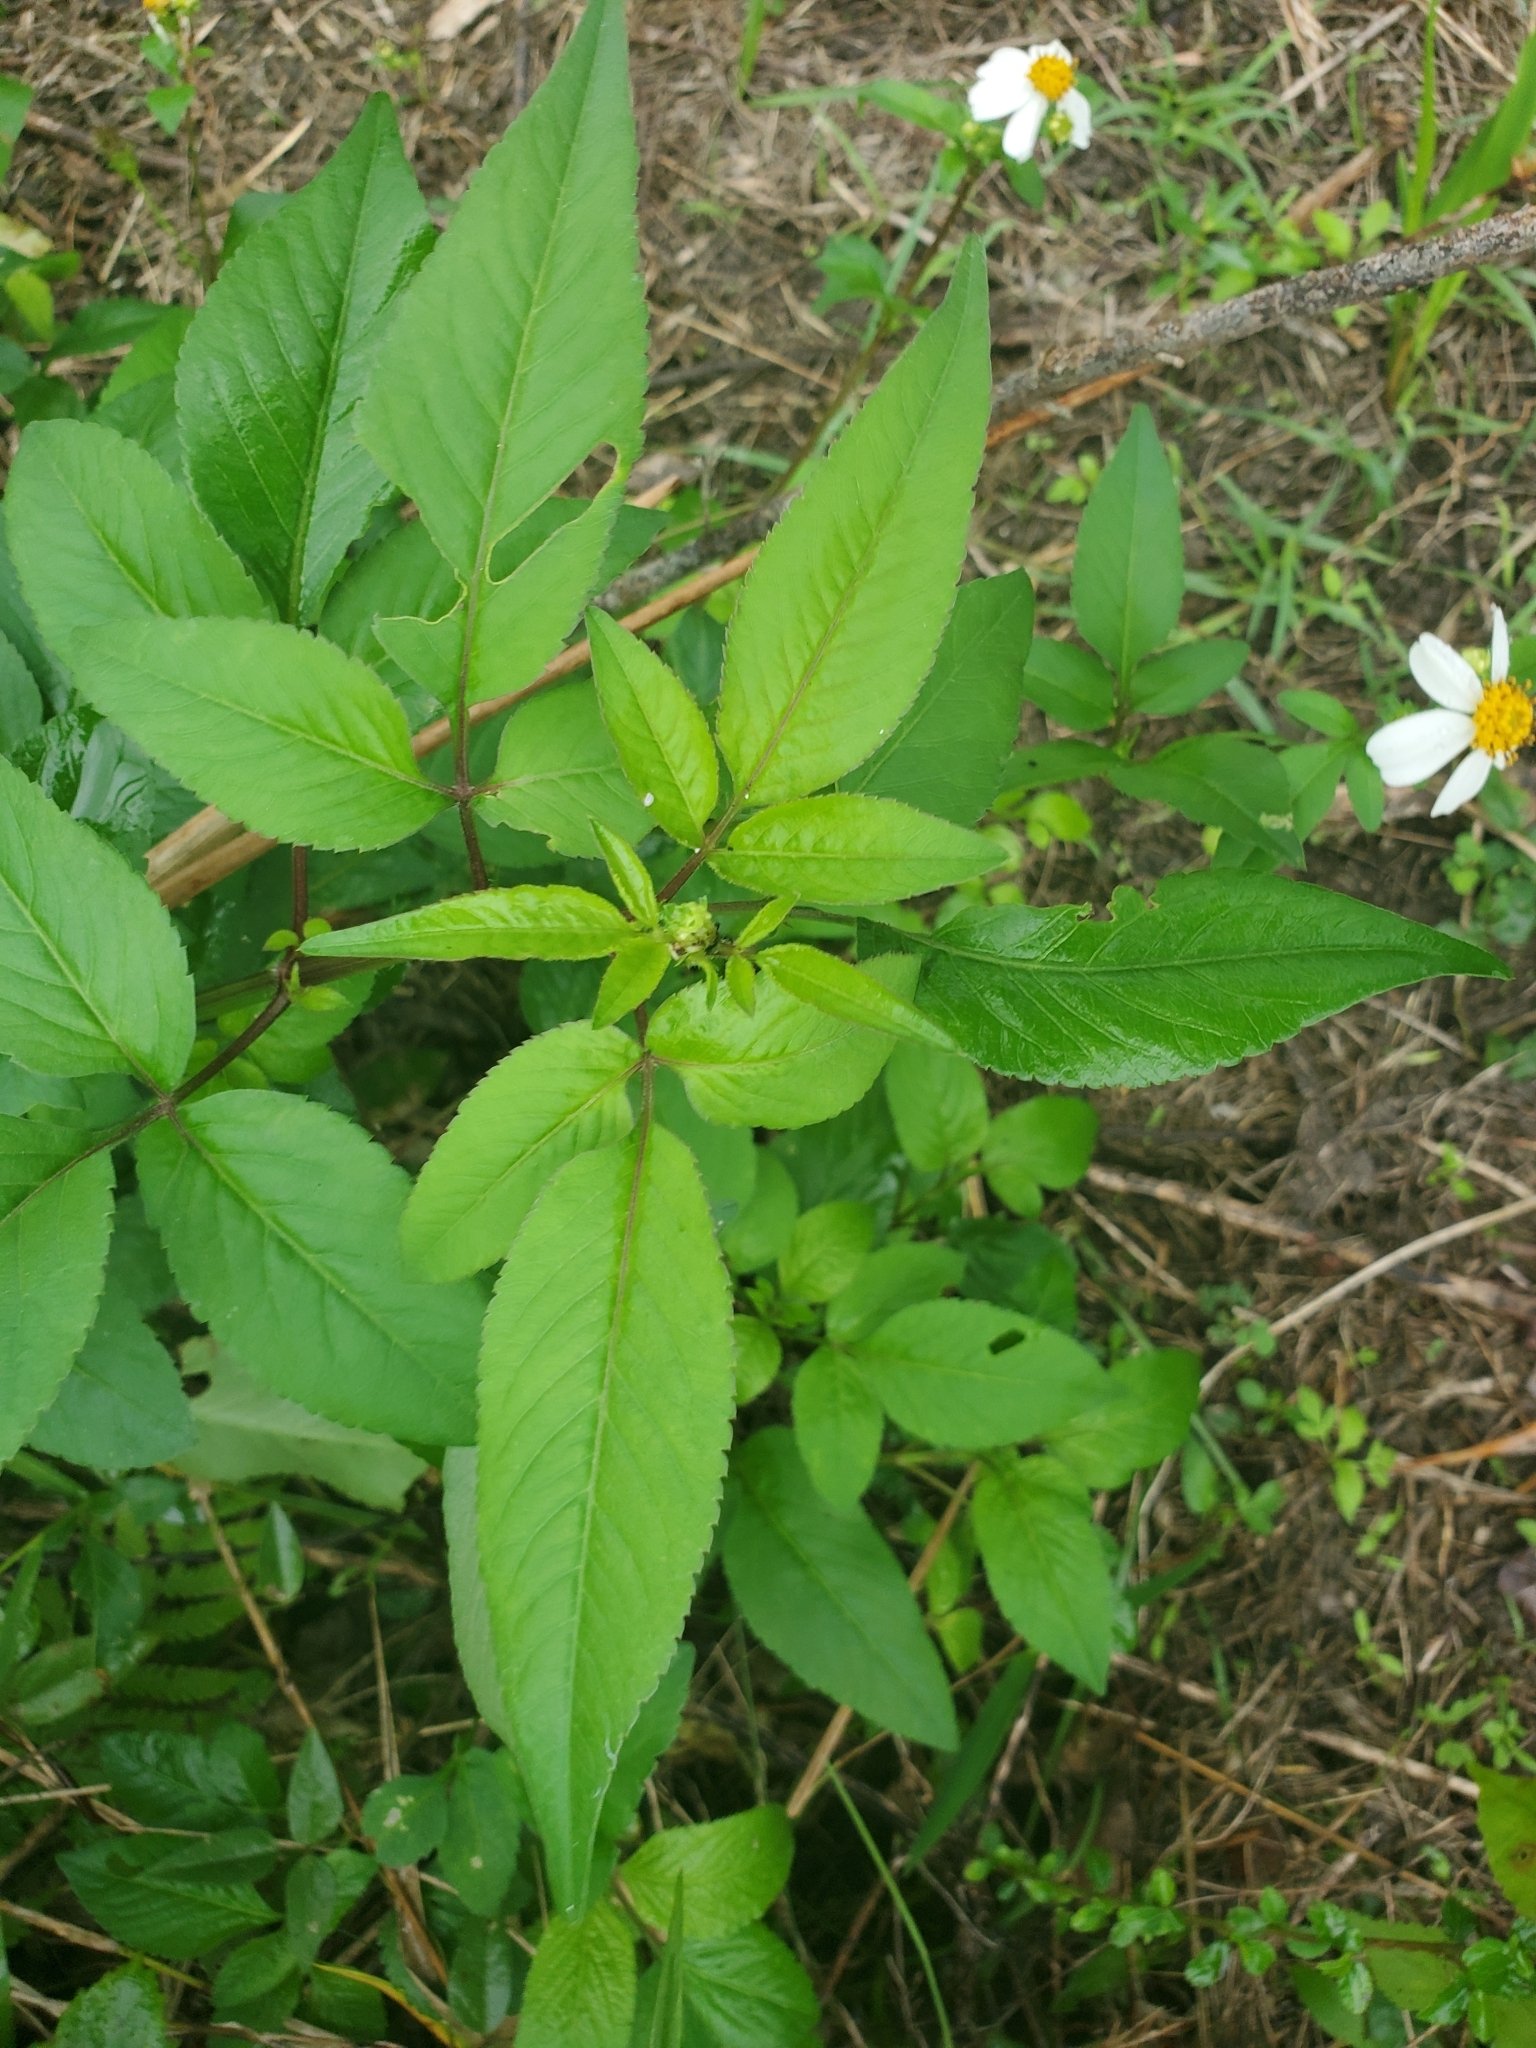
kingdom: Plantae
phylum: Tracheophyta
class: Magnoliopsida
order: Asterales
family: Asteraceae
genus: Bidens
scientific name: Bidens alba
